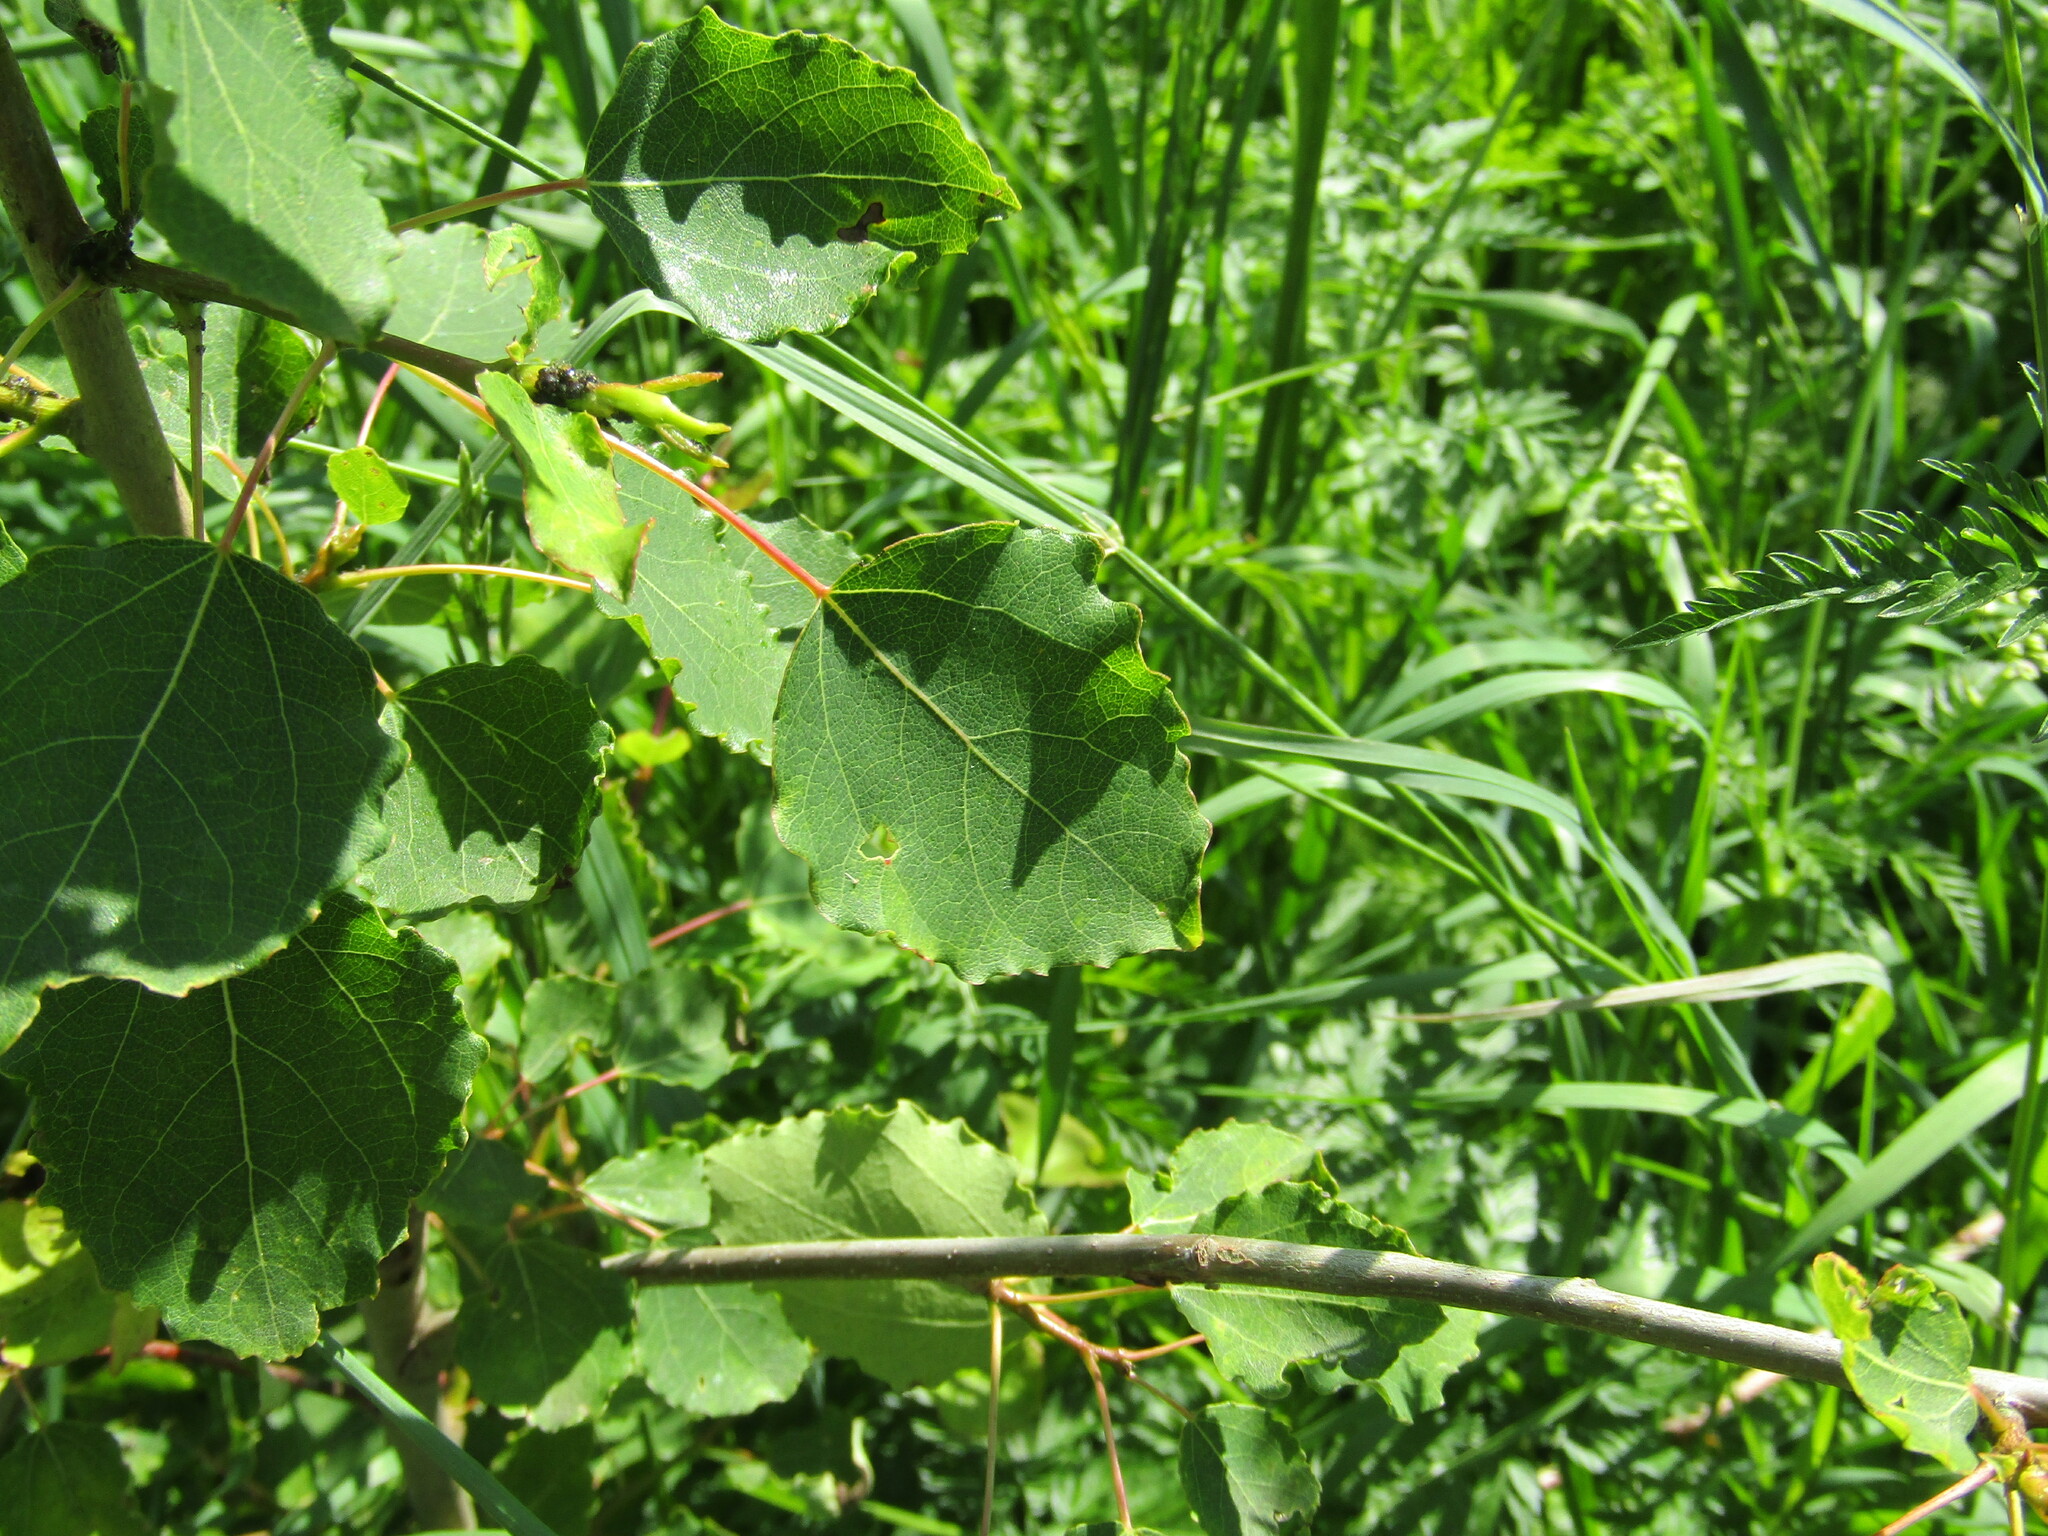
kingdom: Plantae
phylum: Tracheophyta
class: Magnoliopsida
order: Malpighiales
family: Salicaceae
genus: Populus
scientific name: Populus tremula
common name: European aspen
